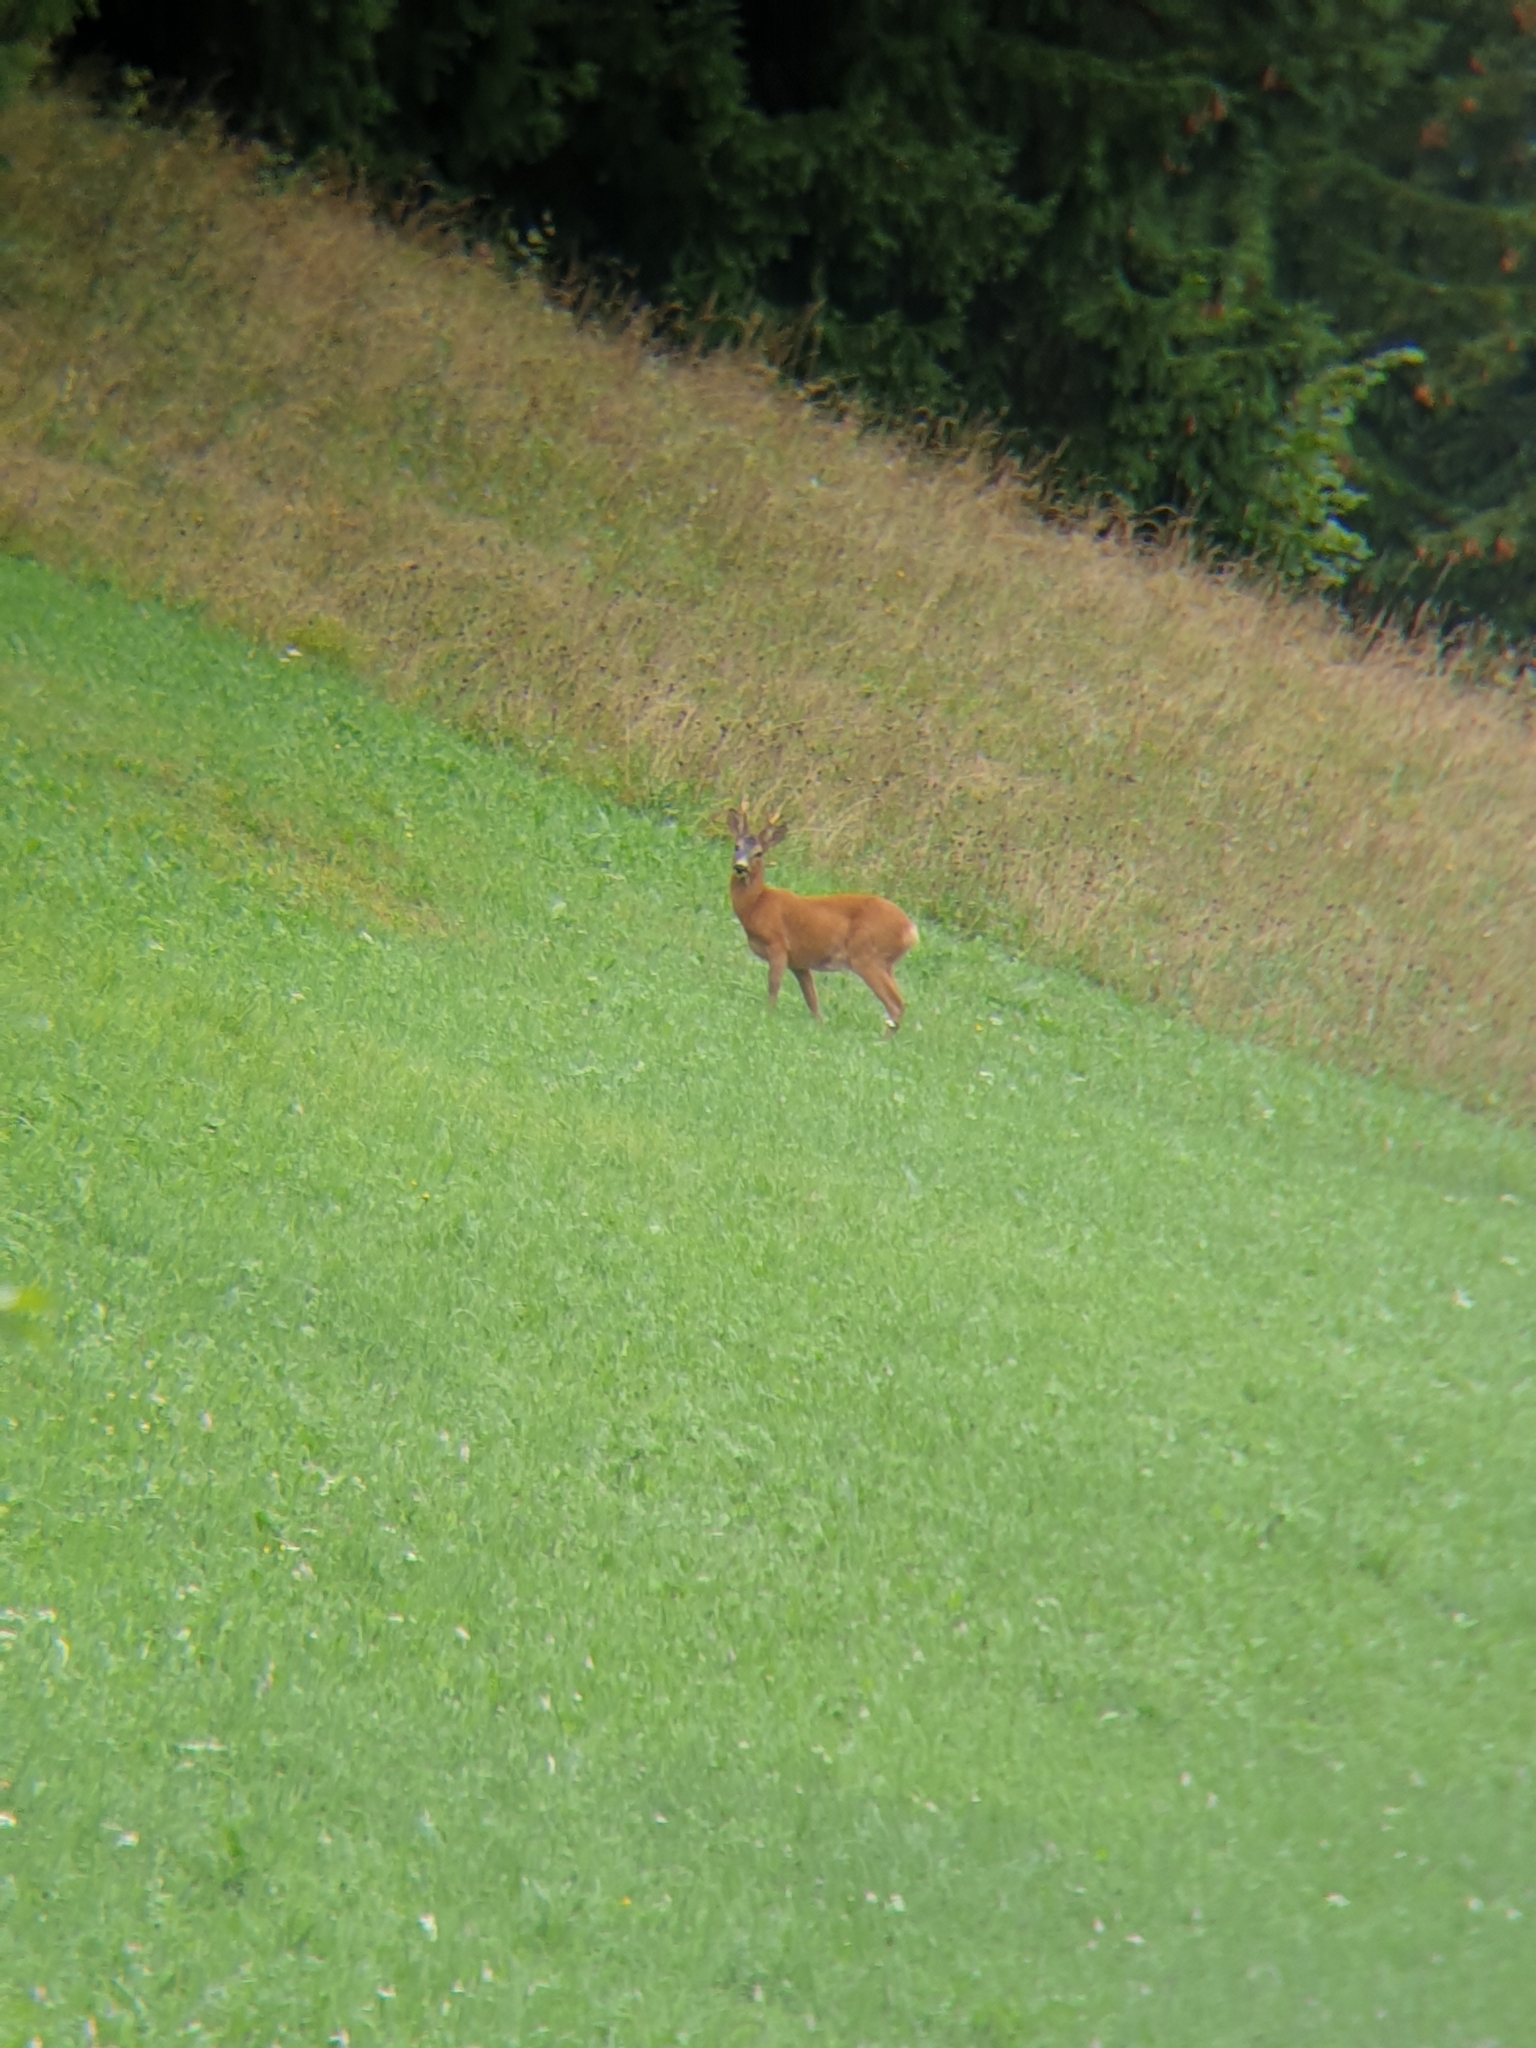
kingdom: Animalia
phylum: Chordata
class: Mammalia
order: Artiodactyla
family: Cervidae
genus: Capreolus
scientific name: Capreolus capreolus
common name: Western roe deer
